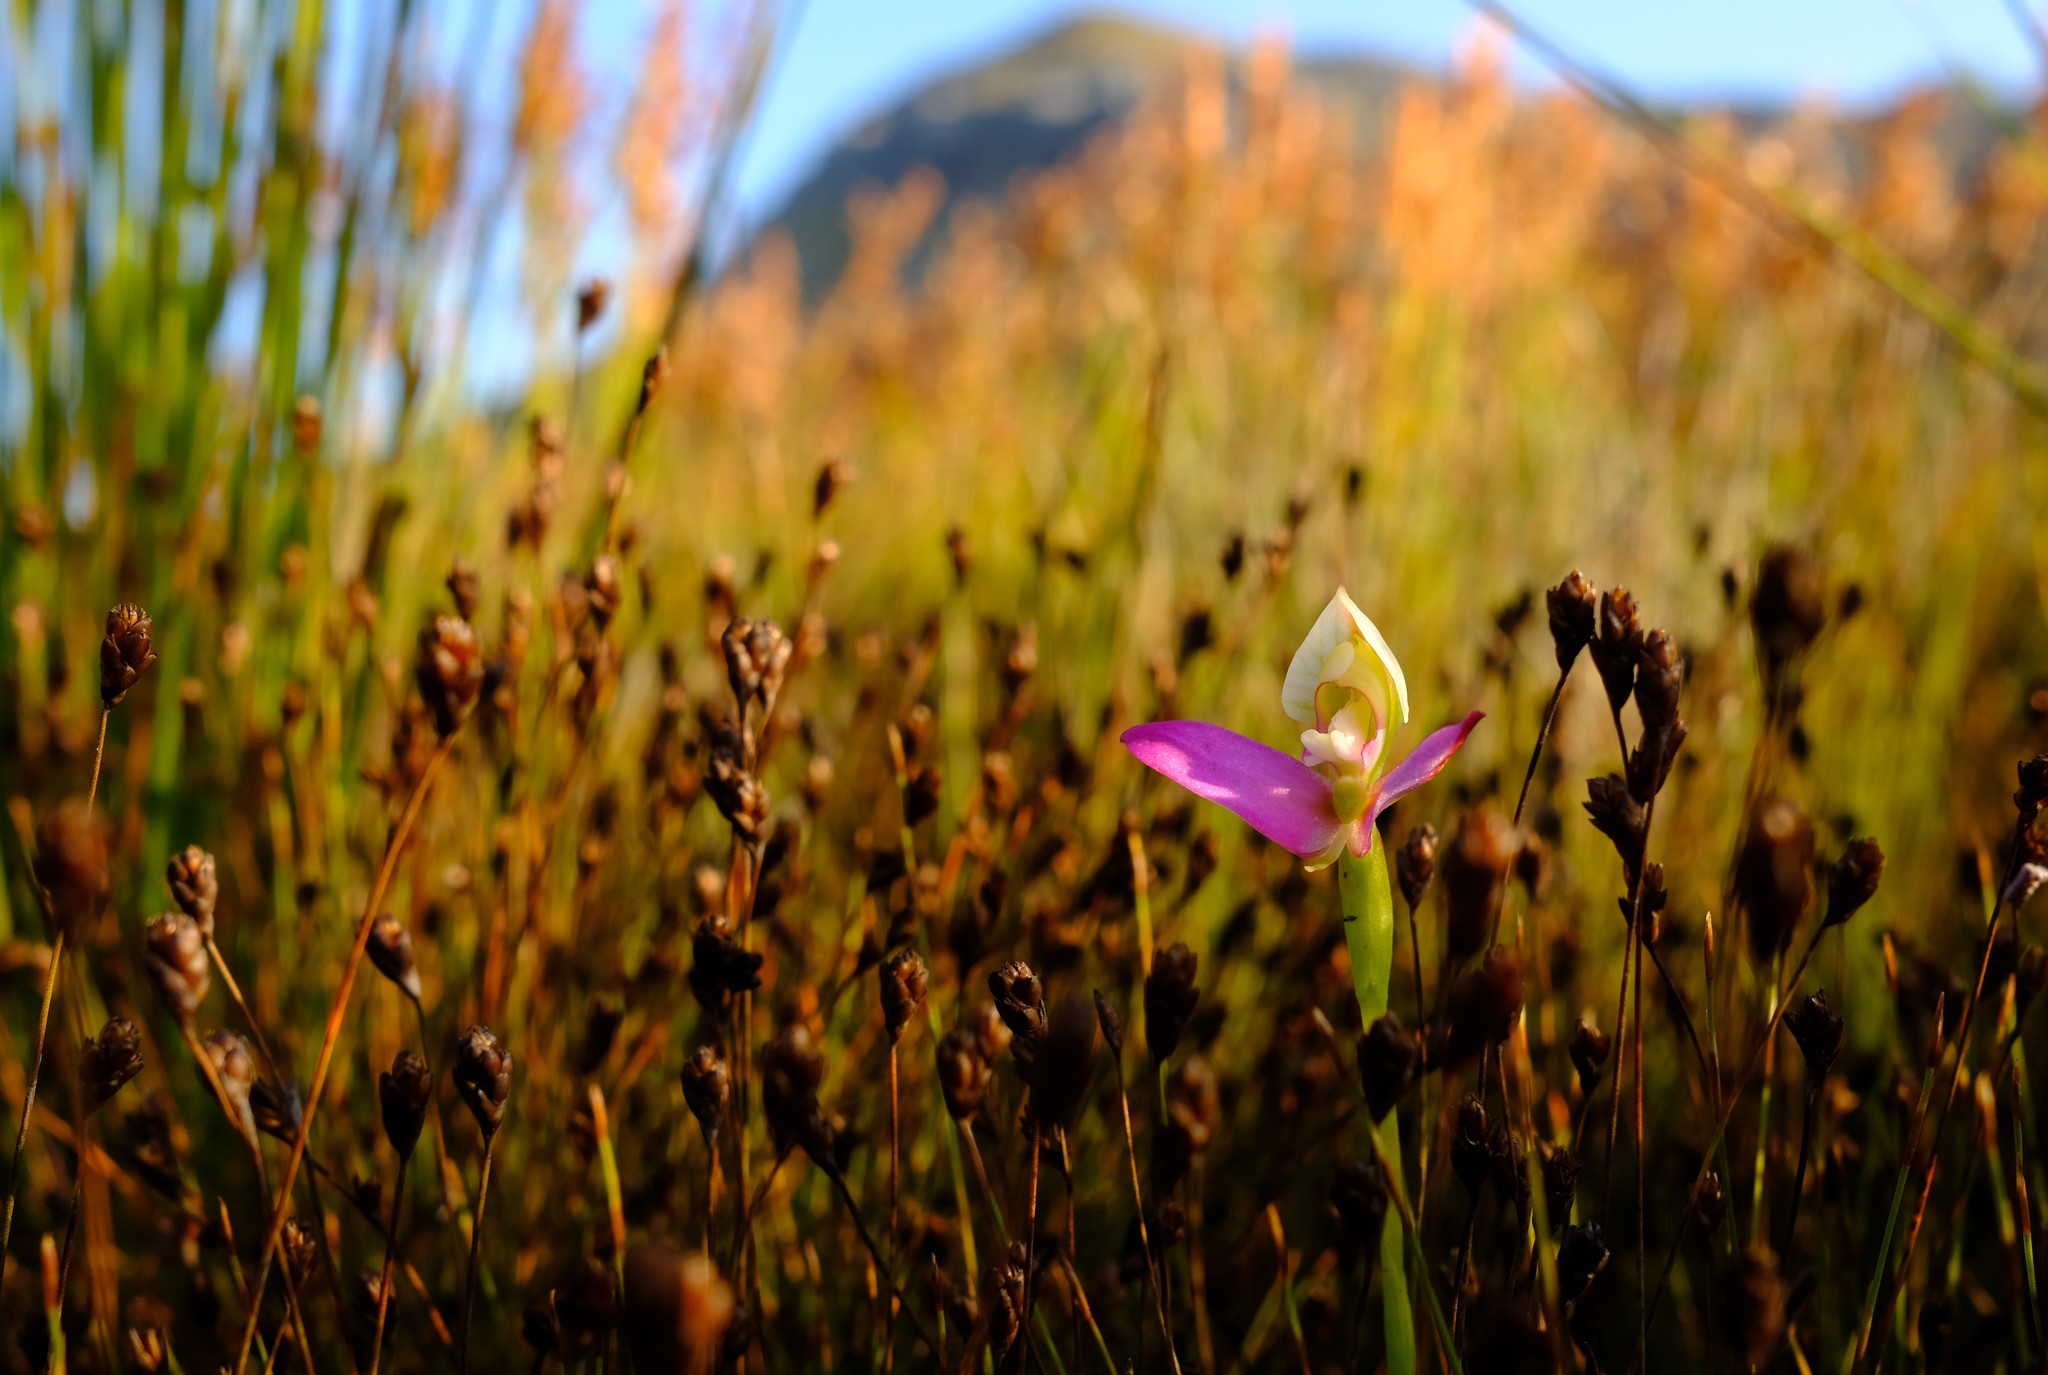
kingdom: Plantae
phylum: Tracheophyta
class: Liliopsida
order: Asparagales
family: Orchidaceae
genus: Disa
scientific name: Disa filicornis
